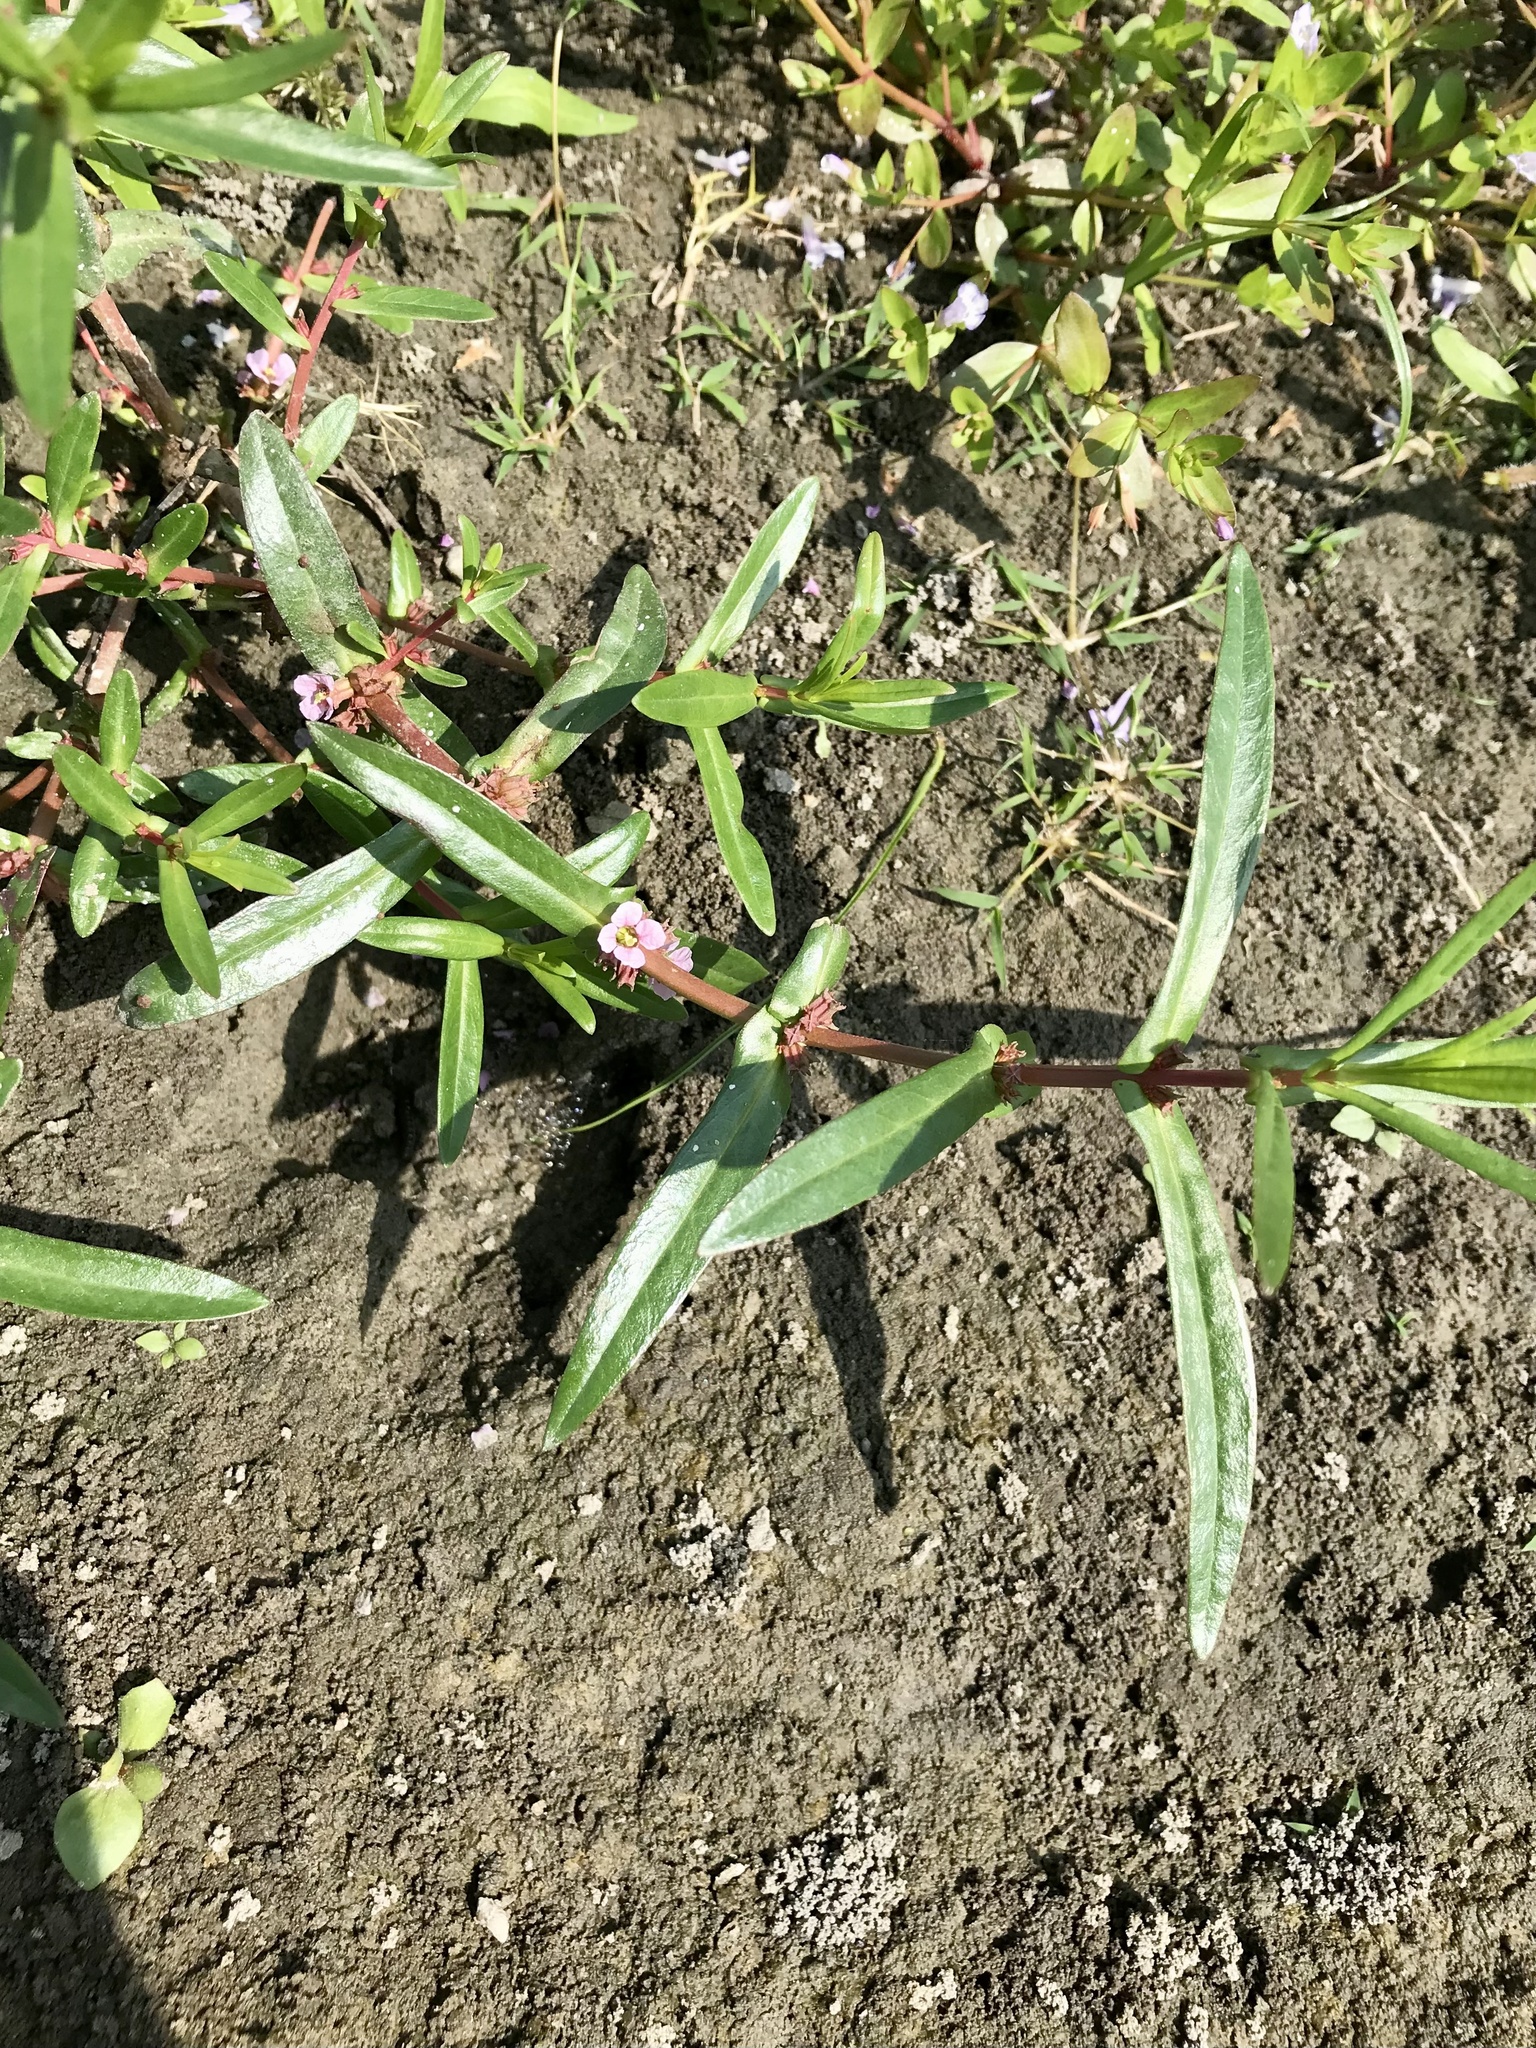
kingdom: Plantae
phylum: Tracheophyta
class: Magnoliopsida
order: Myrtales
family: Lythraceae
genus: Ammannia
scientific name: Ammannia robusta
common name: Grand ammannia
